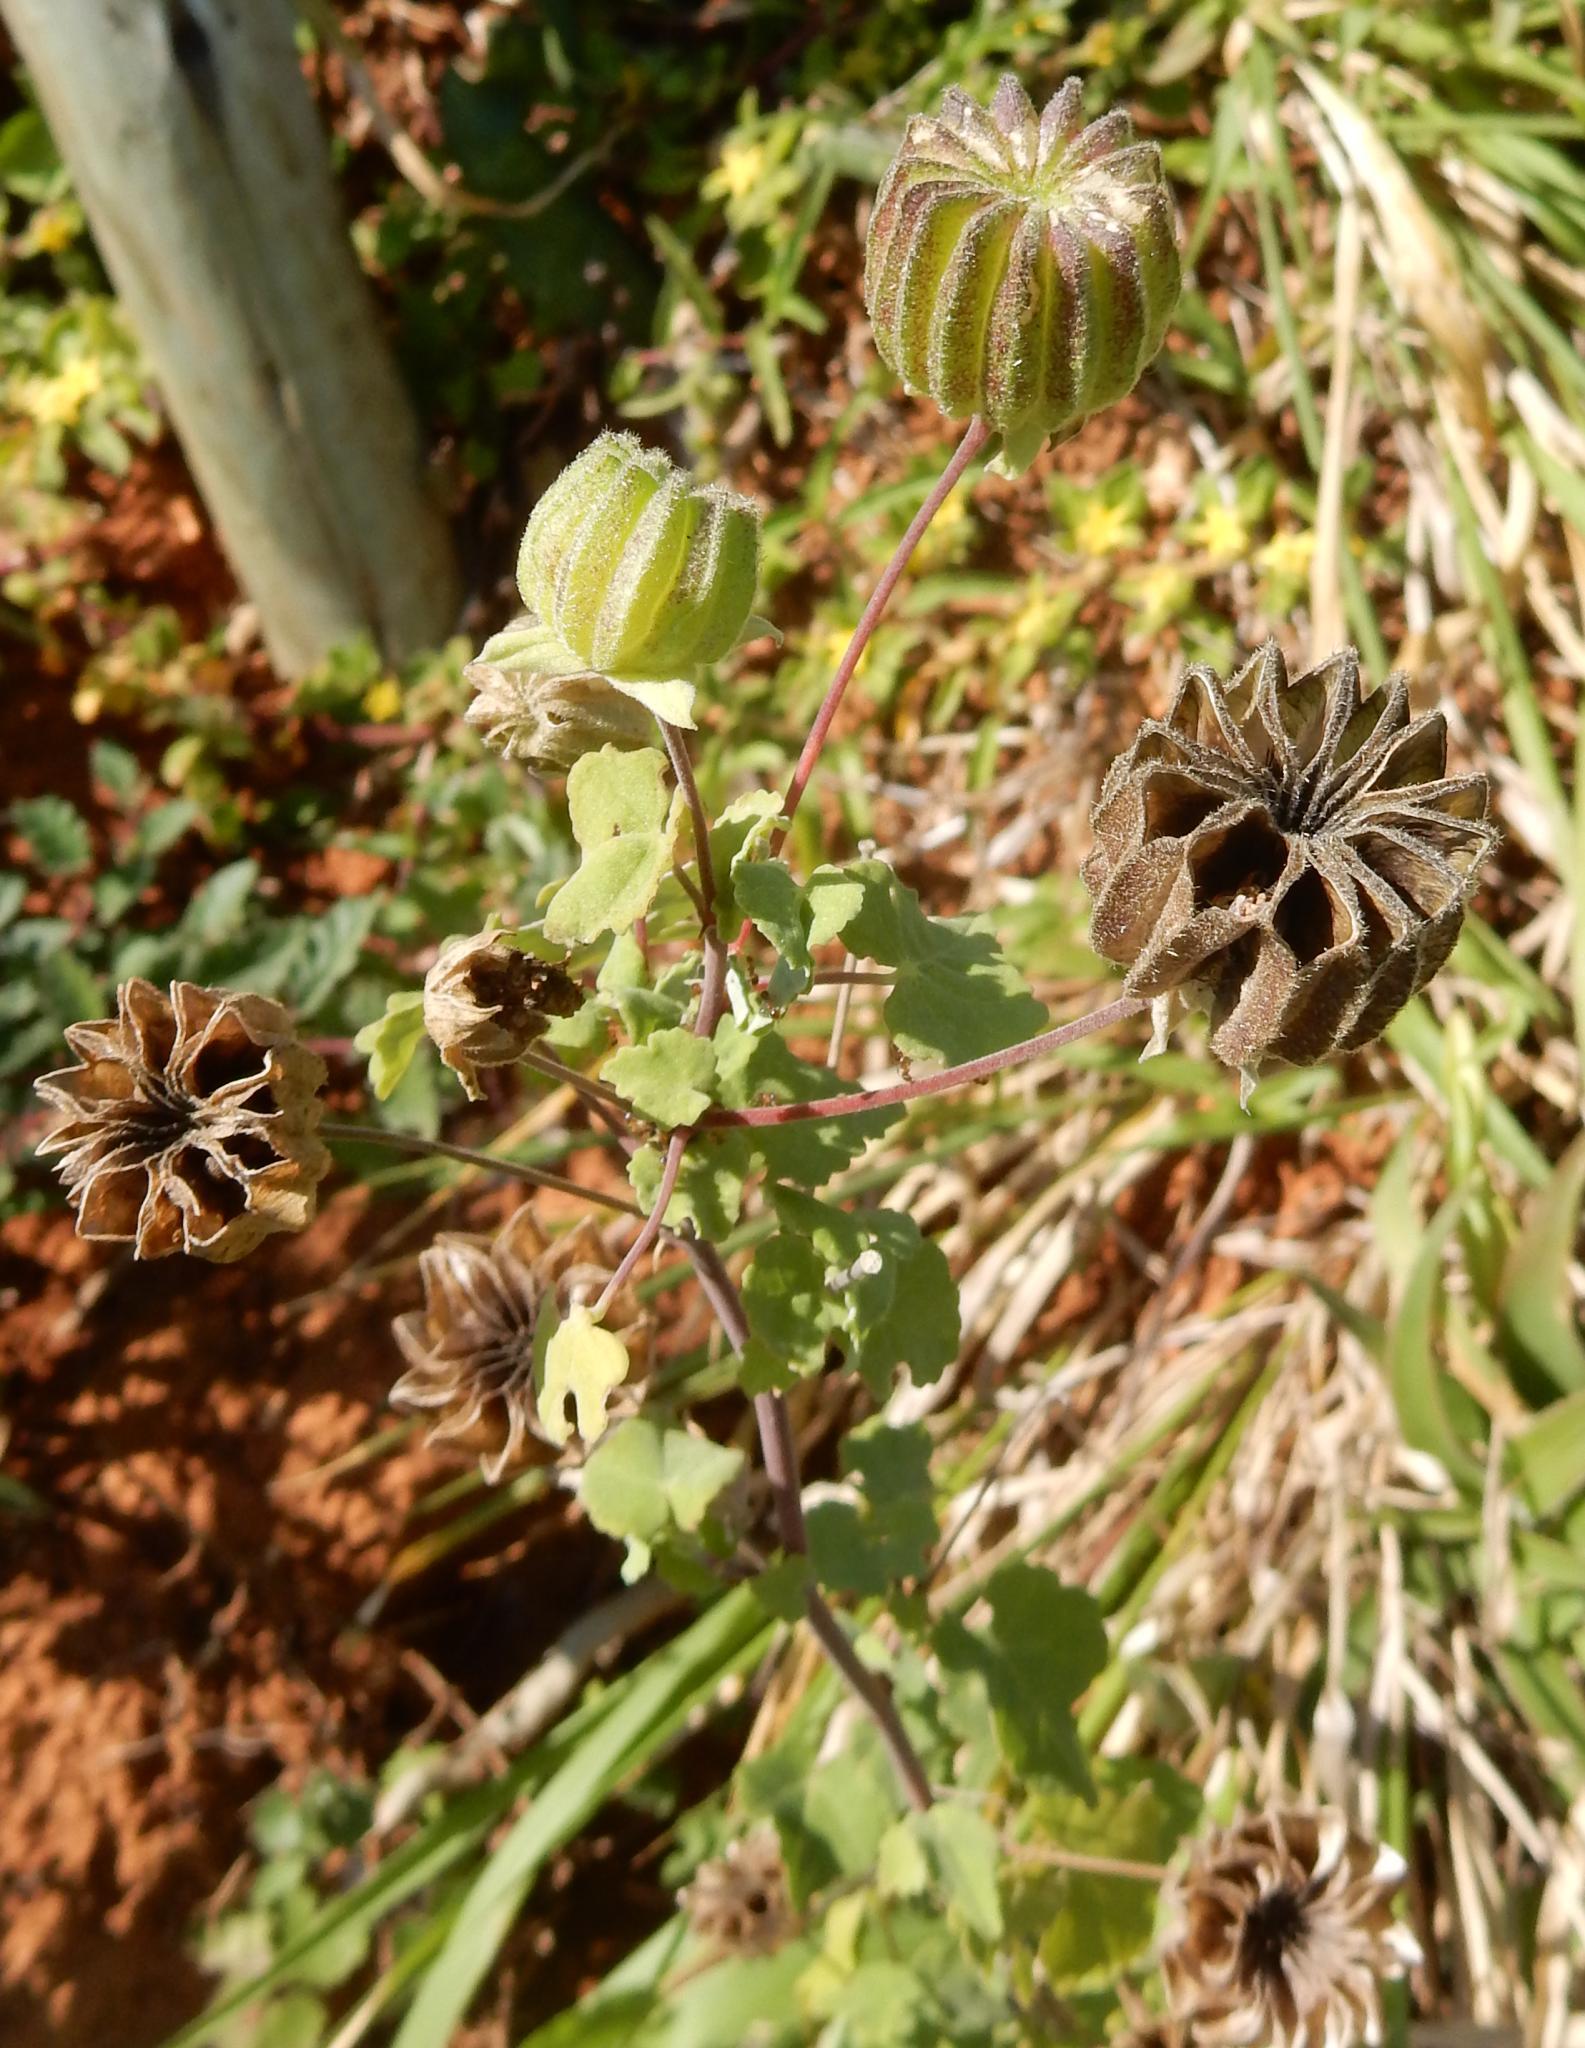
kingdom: Plantae
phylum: Tracheophyta
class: Magnoliopsida
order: Malvales
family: Malvaceae
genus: Abutilon
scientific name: Abutilon sonneratianum
